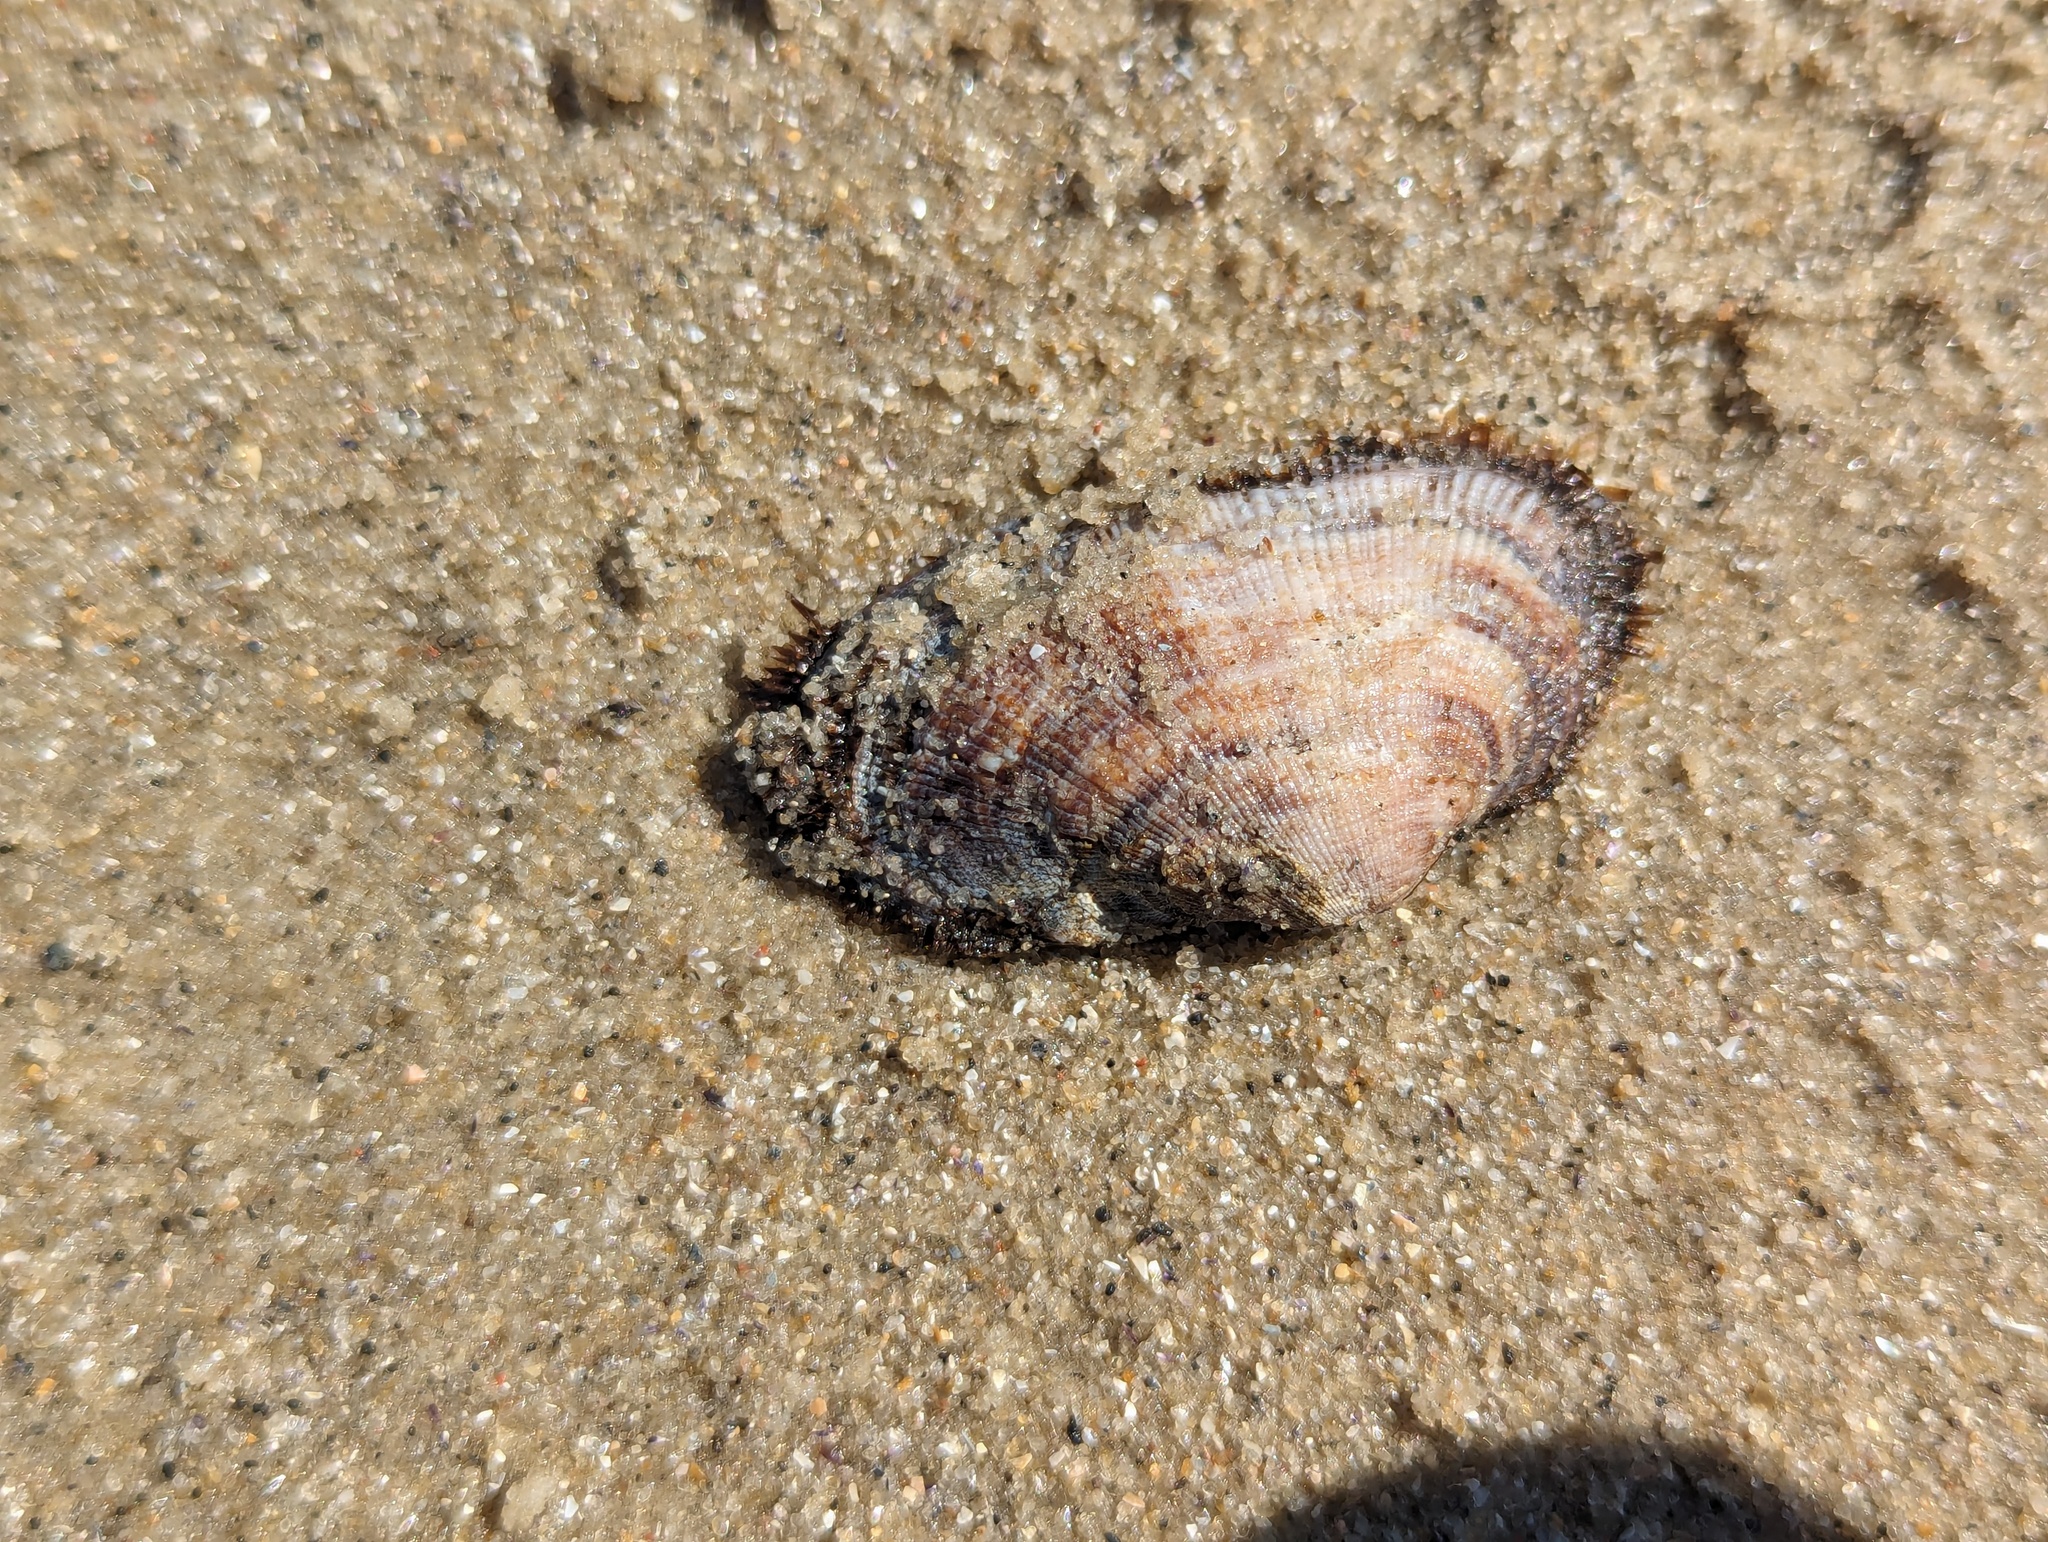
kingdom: Animalia
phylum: Mollusca
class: Bivalvia
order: Arcida
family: Arcidae
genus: Barbatia
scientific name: Barbatia pistachia
